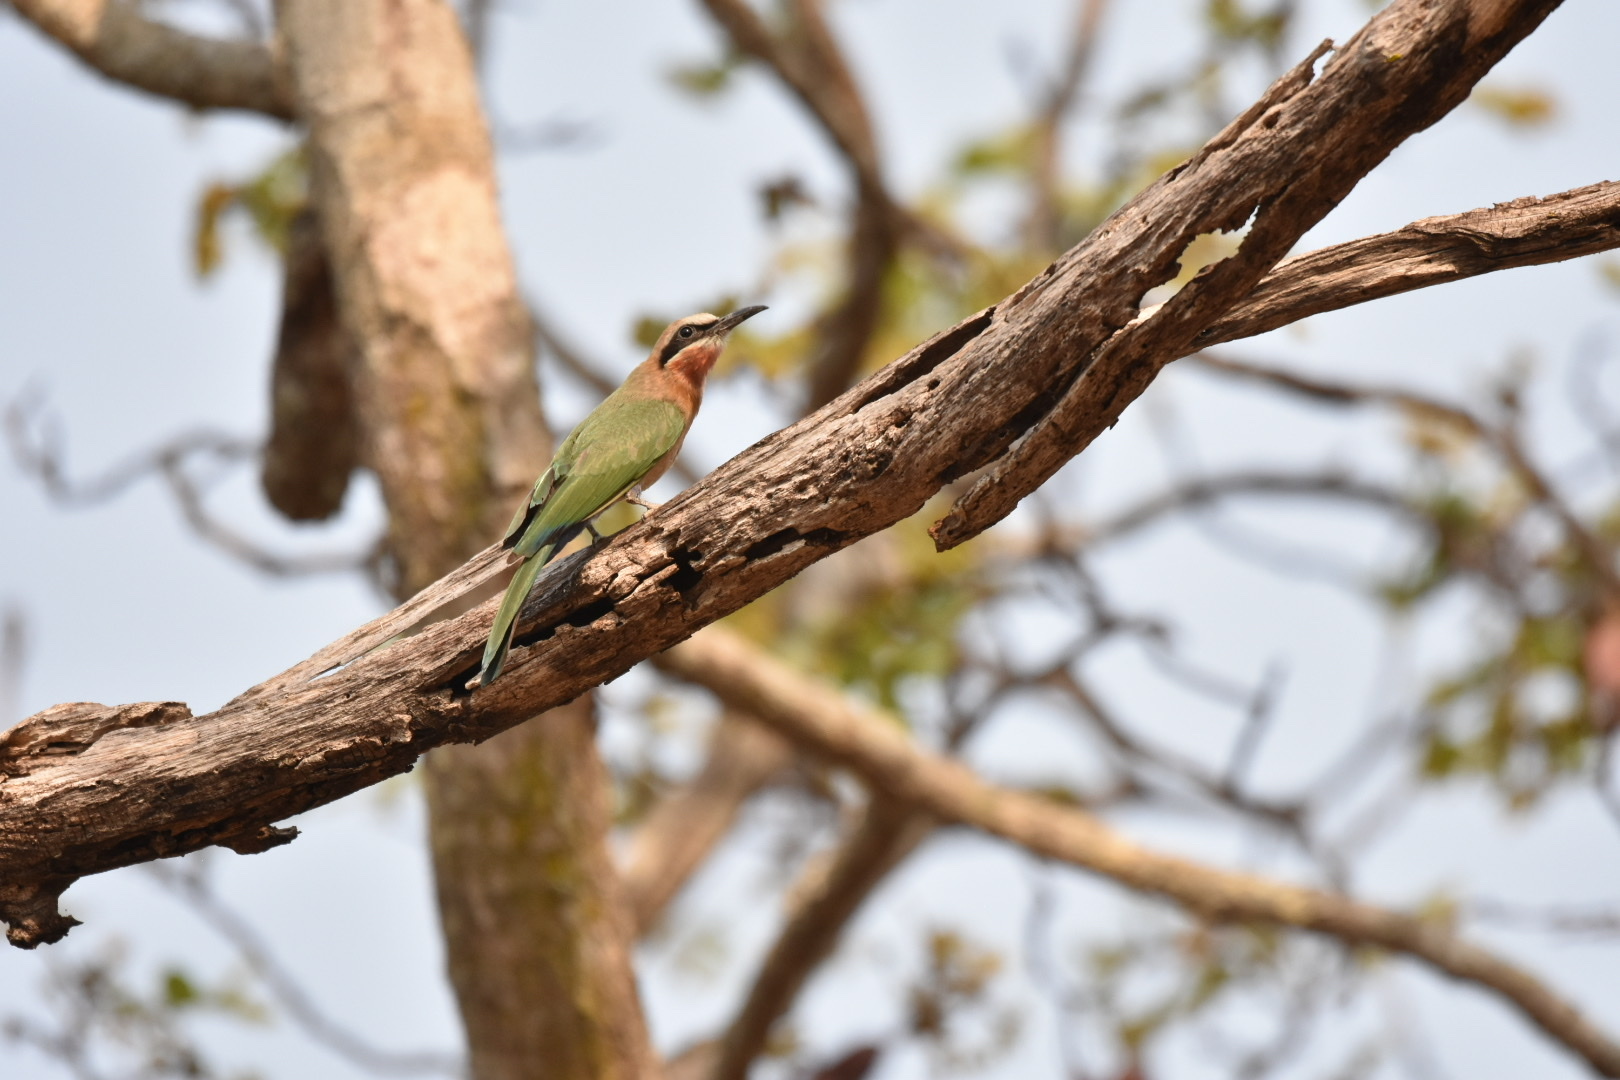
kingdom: Animalia
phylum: Chordata
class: Aves
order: Coraciiformes
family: Meropidae
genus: Merops
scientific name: Merops bullockoides
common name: White-fronted bee-eater
